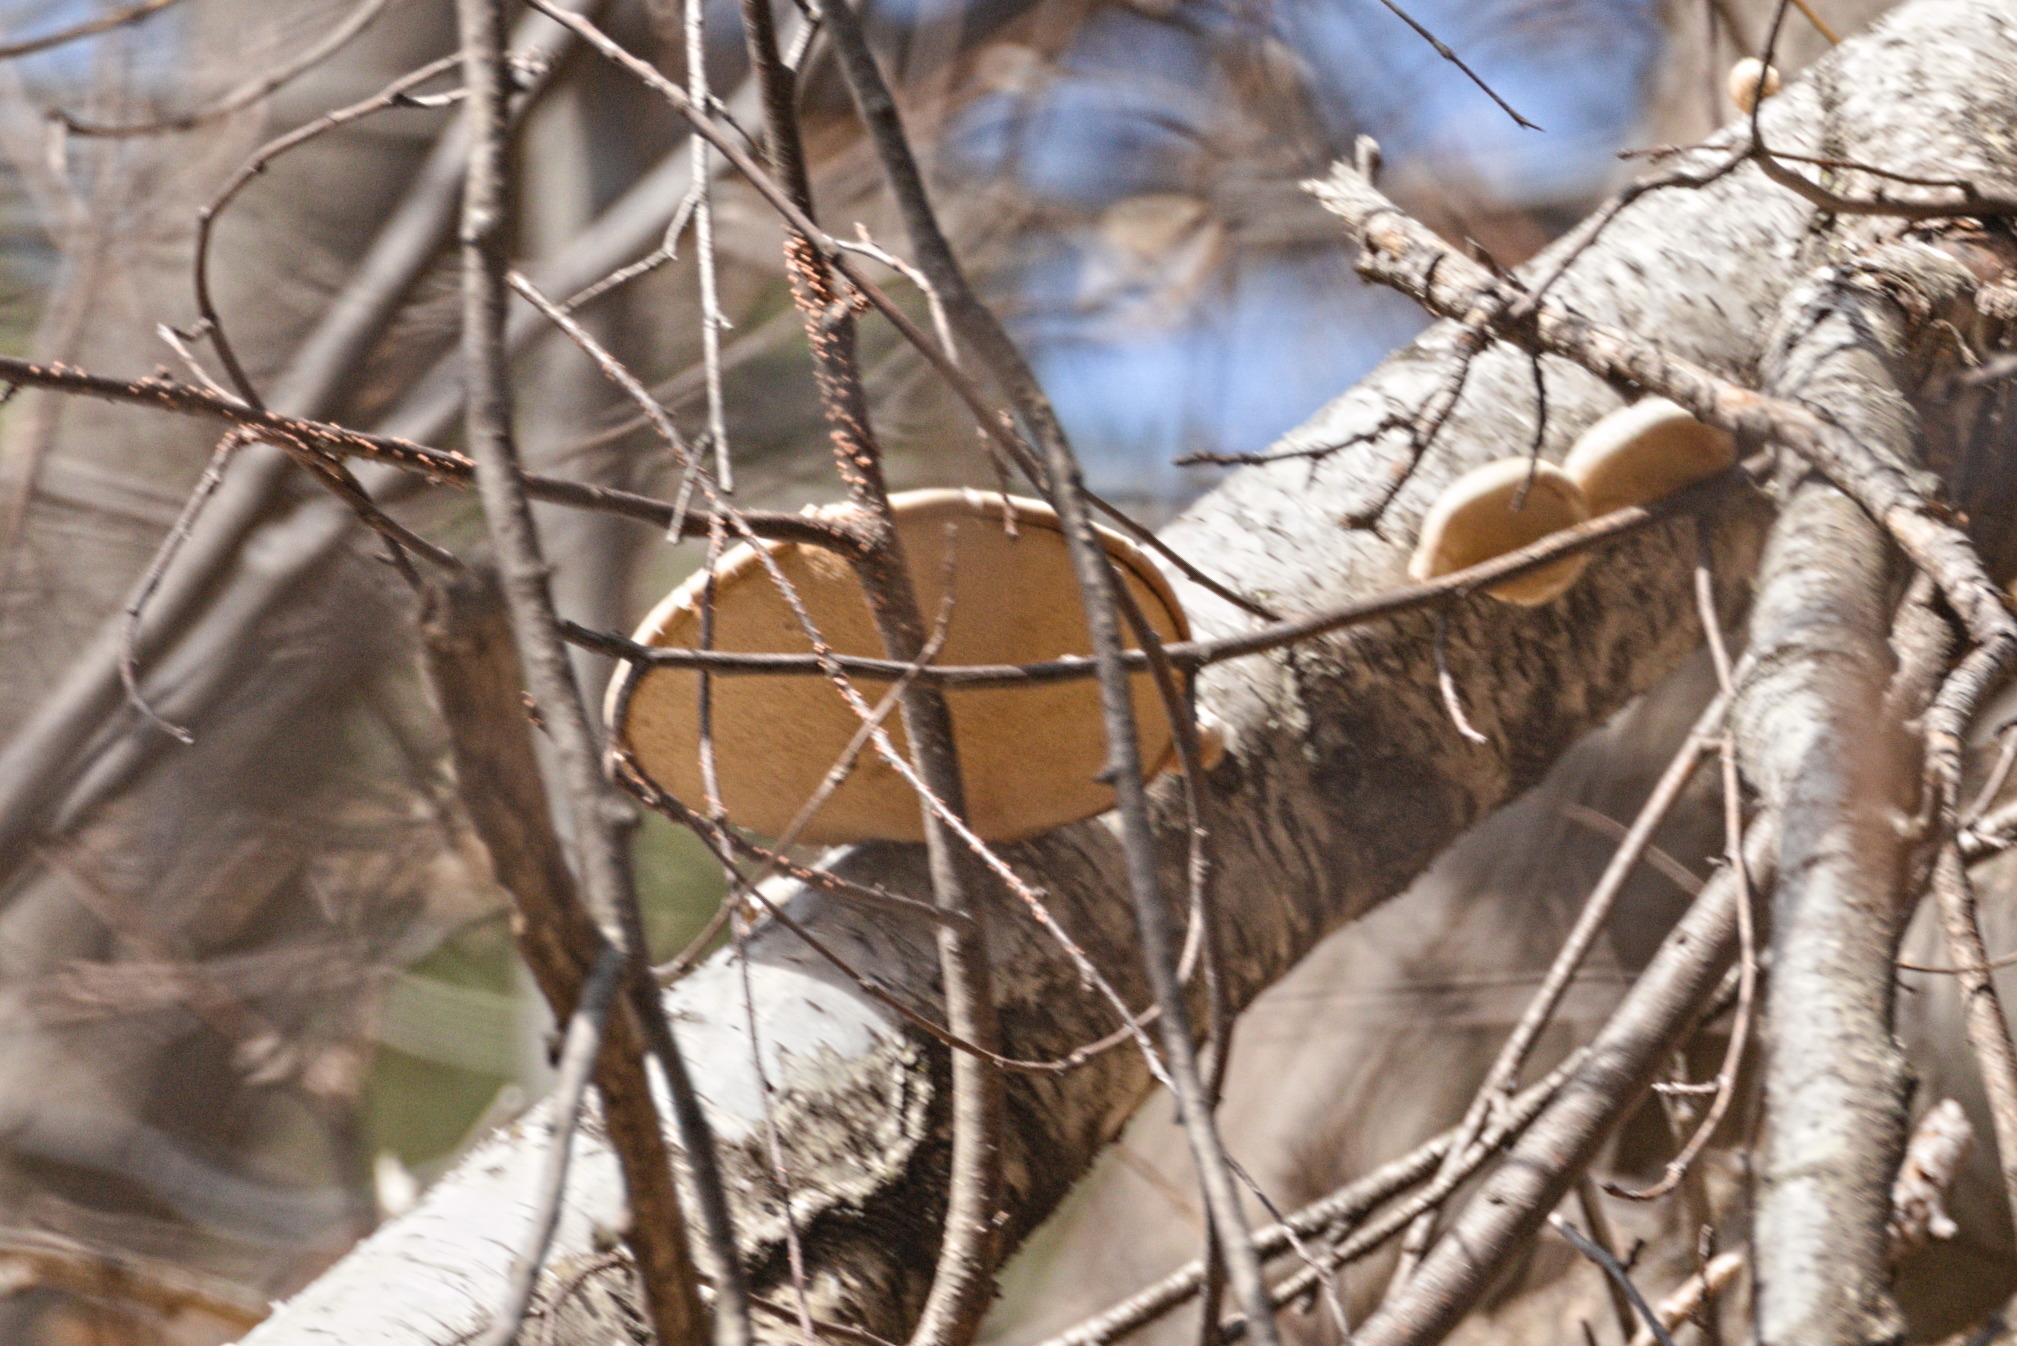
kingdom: Fungi
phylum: Basidiomycota
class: Agaricomycetes
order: Polyporales
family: Fomitopsidaceae
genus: Fomitopsis
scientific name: Fomitopsis betulina
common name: Birch polypore
